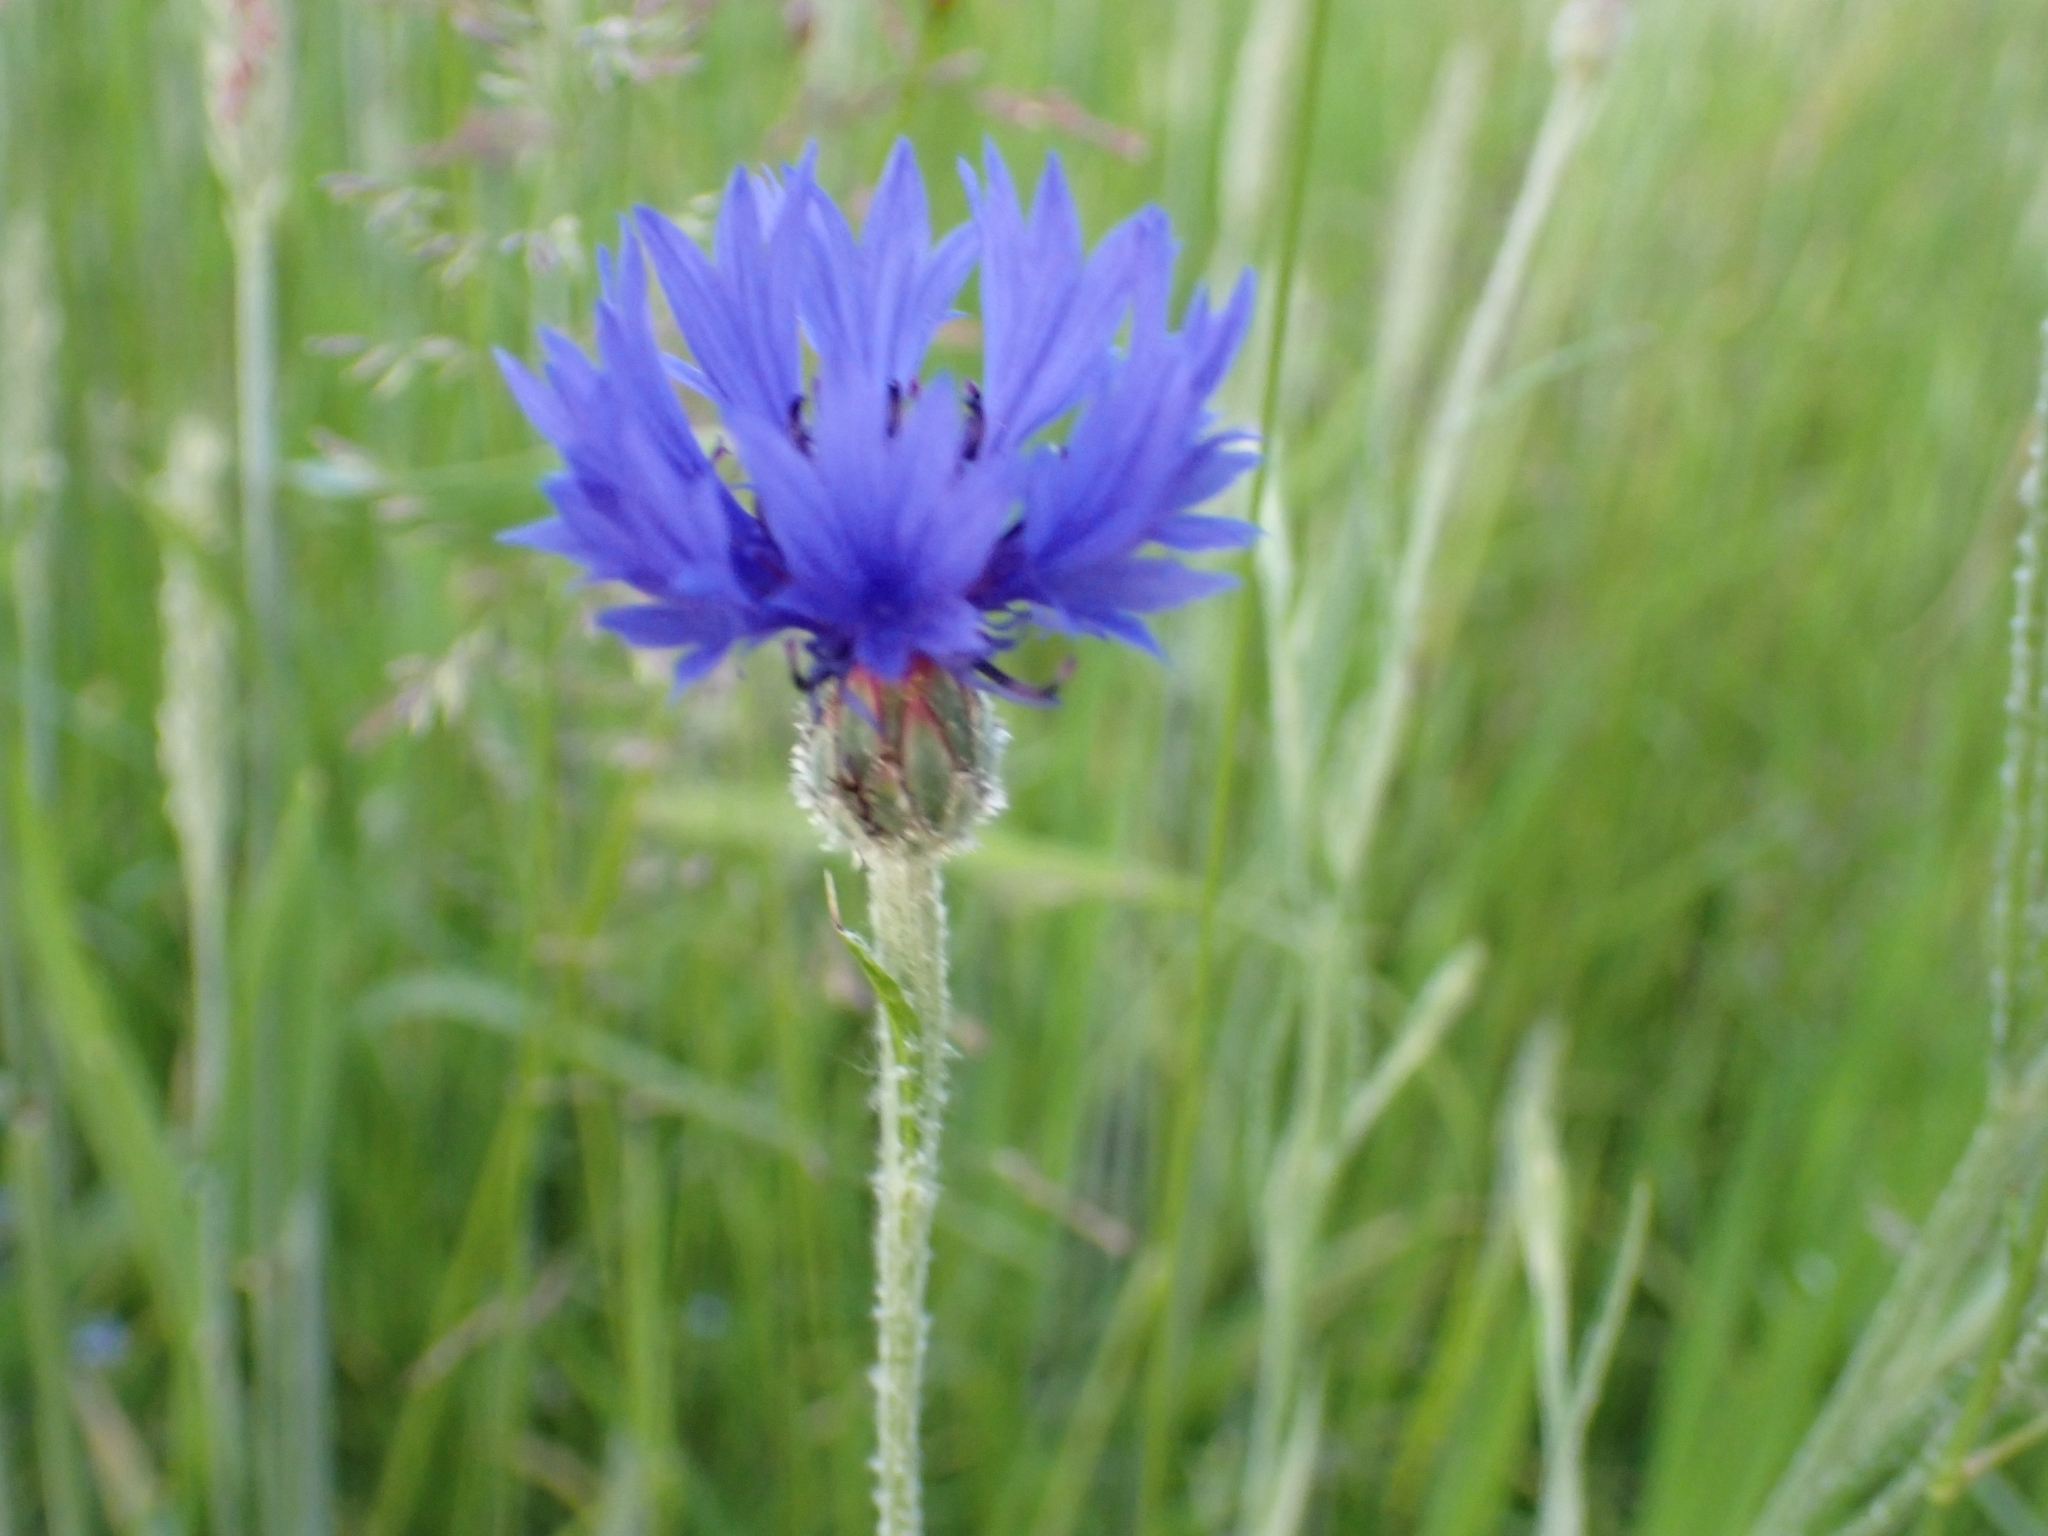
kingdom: Plantae
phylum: Tracheophyta
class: Magnoliopsida
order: Asterales
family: Asteraceae
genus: Centaurea
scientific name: Centaurea cyanus
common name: Cornflower
